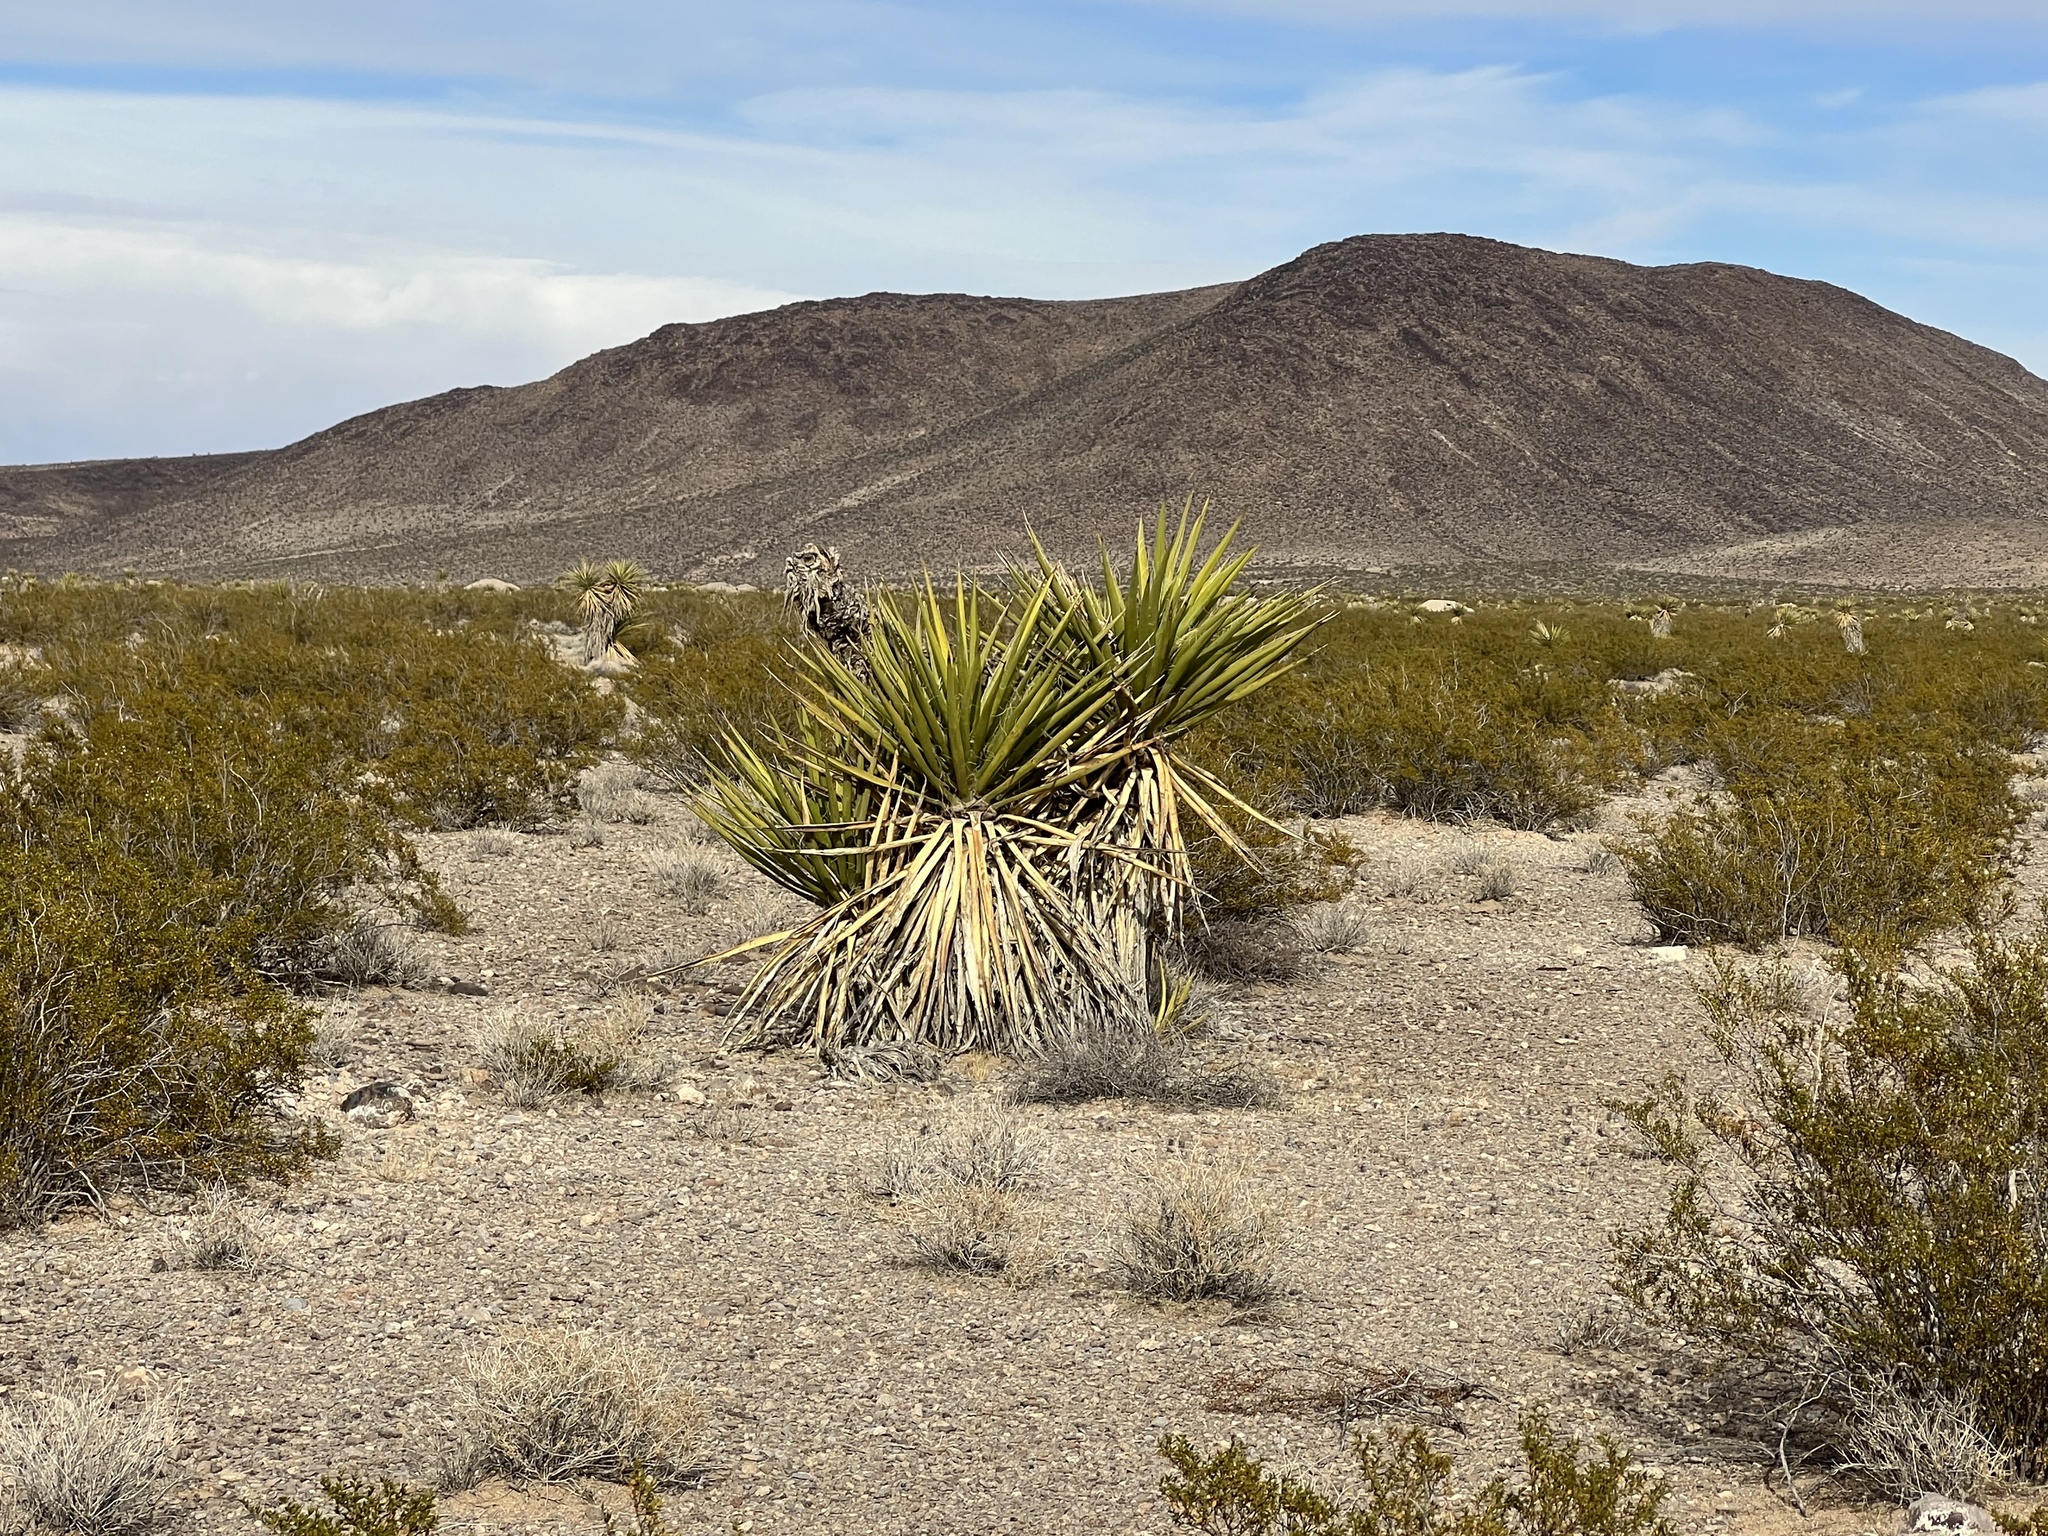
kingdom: Plantae
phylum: Tracheophyta
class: Liliopsida
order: Asparagales
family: Asparagaceae
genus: Yucca
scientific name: Yucca schidigera
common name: Mojave yucca
